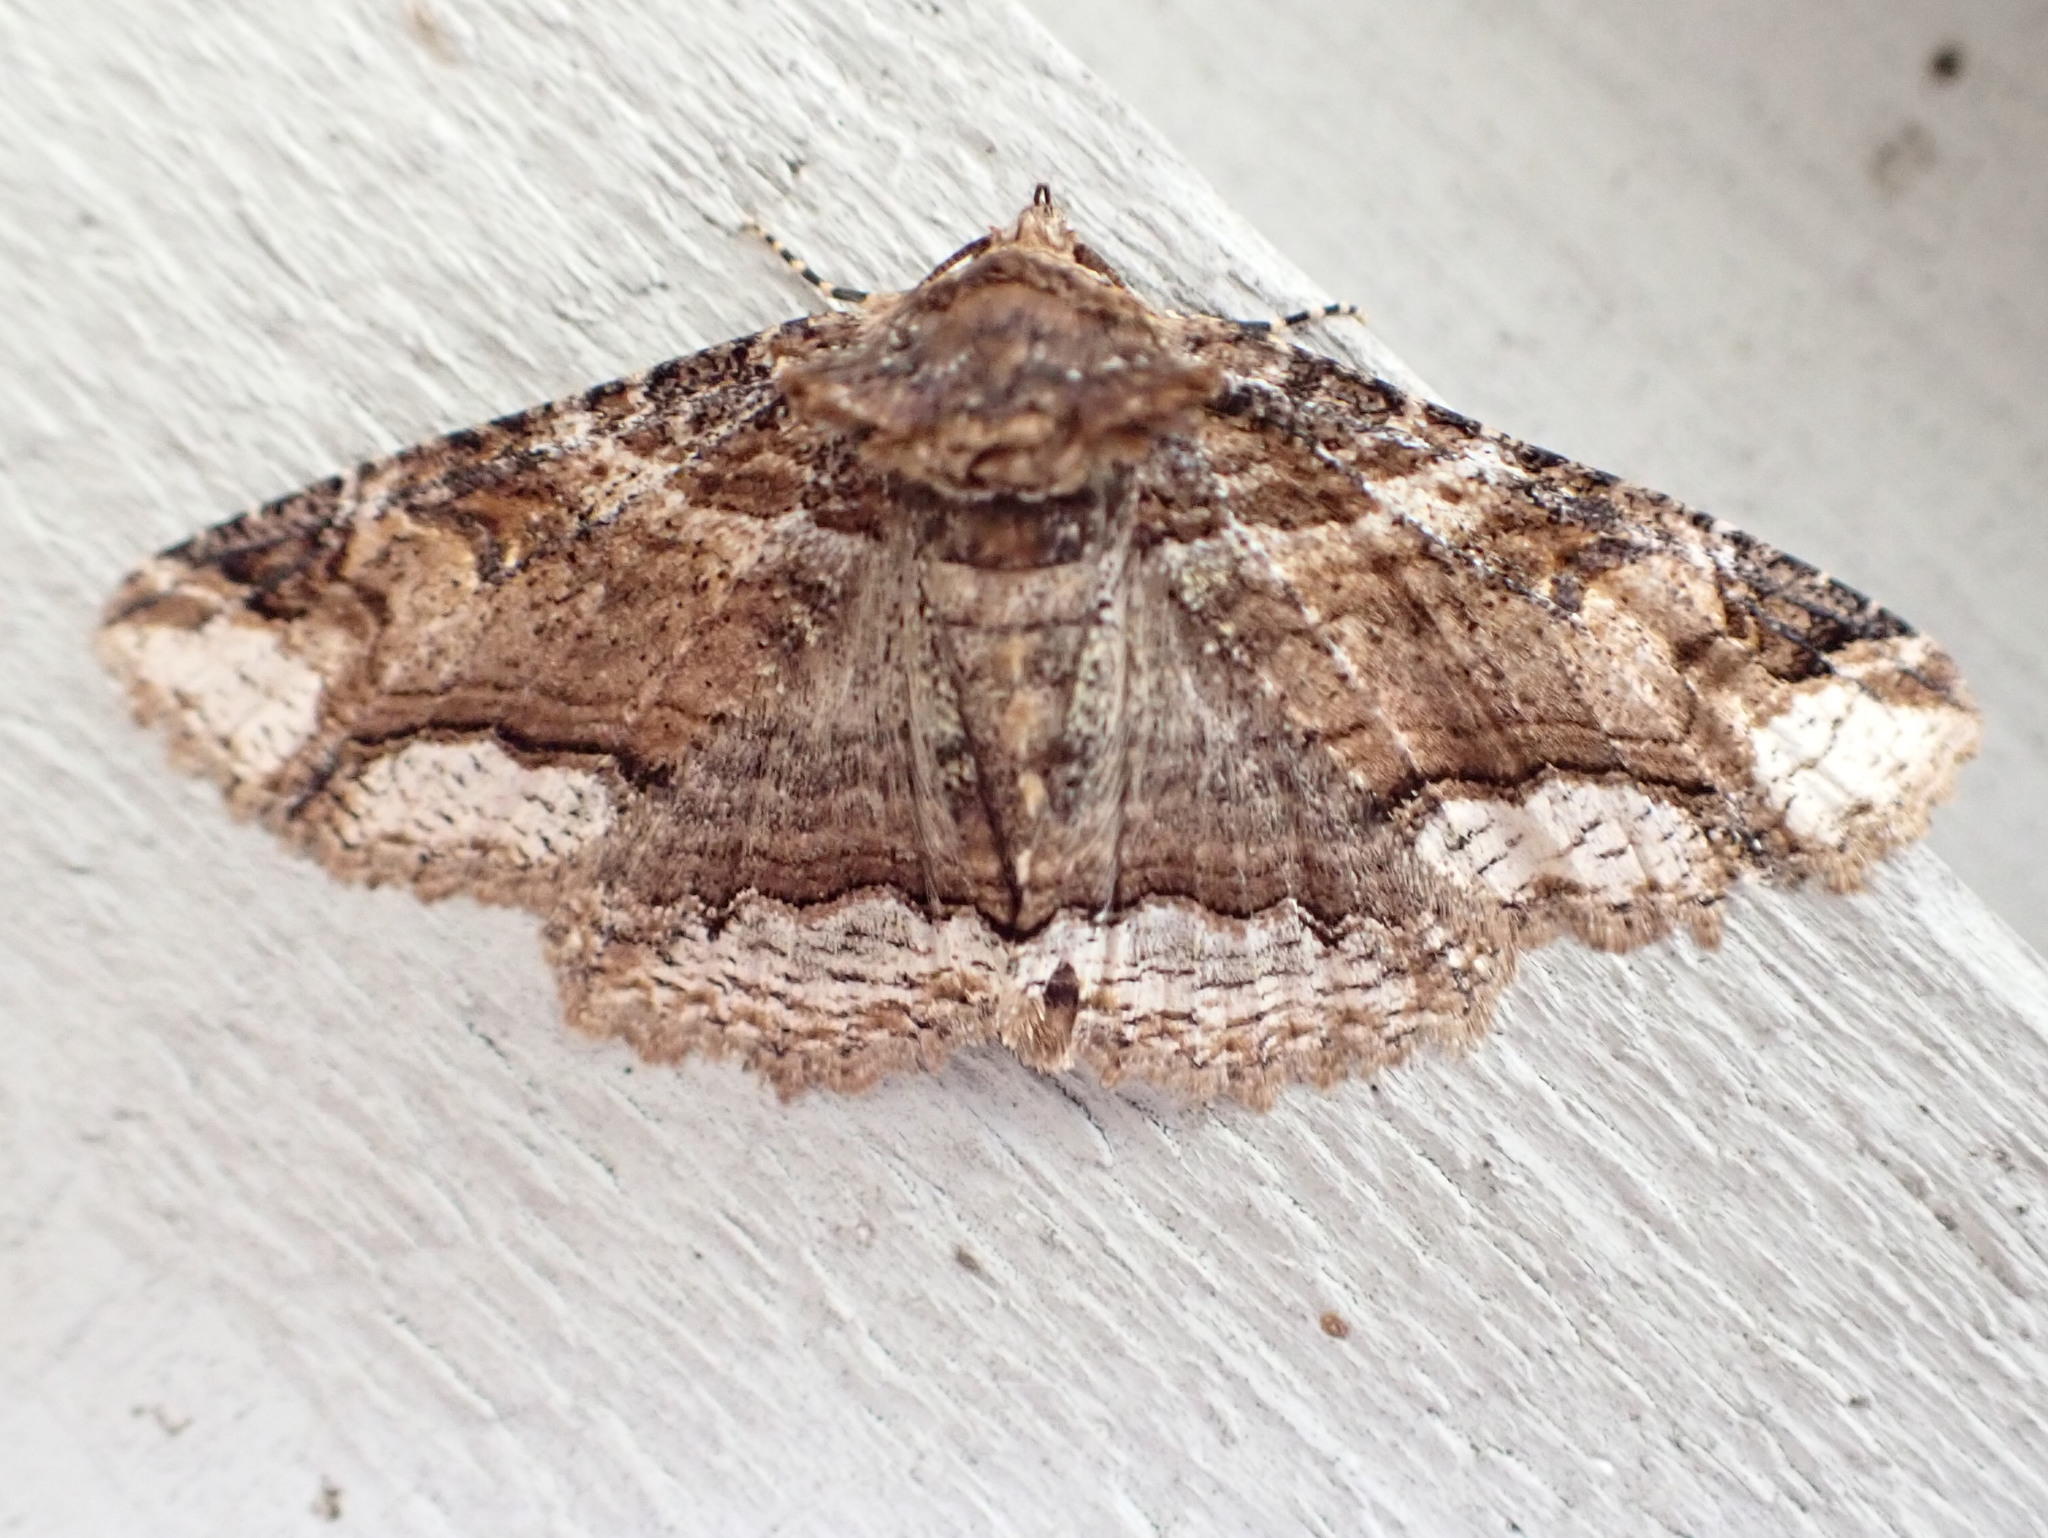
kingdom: Animalia
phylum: Arthropoda
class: Insecta
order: Lepidoptera
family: Erebidae
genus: Zale
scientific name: Zale minerea
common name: Colorful zale moth
